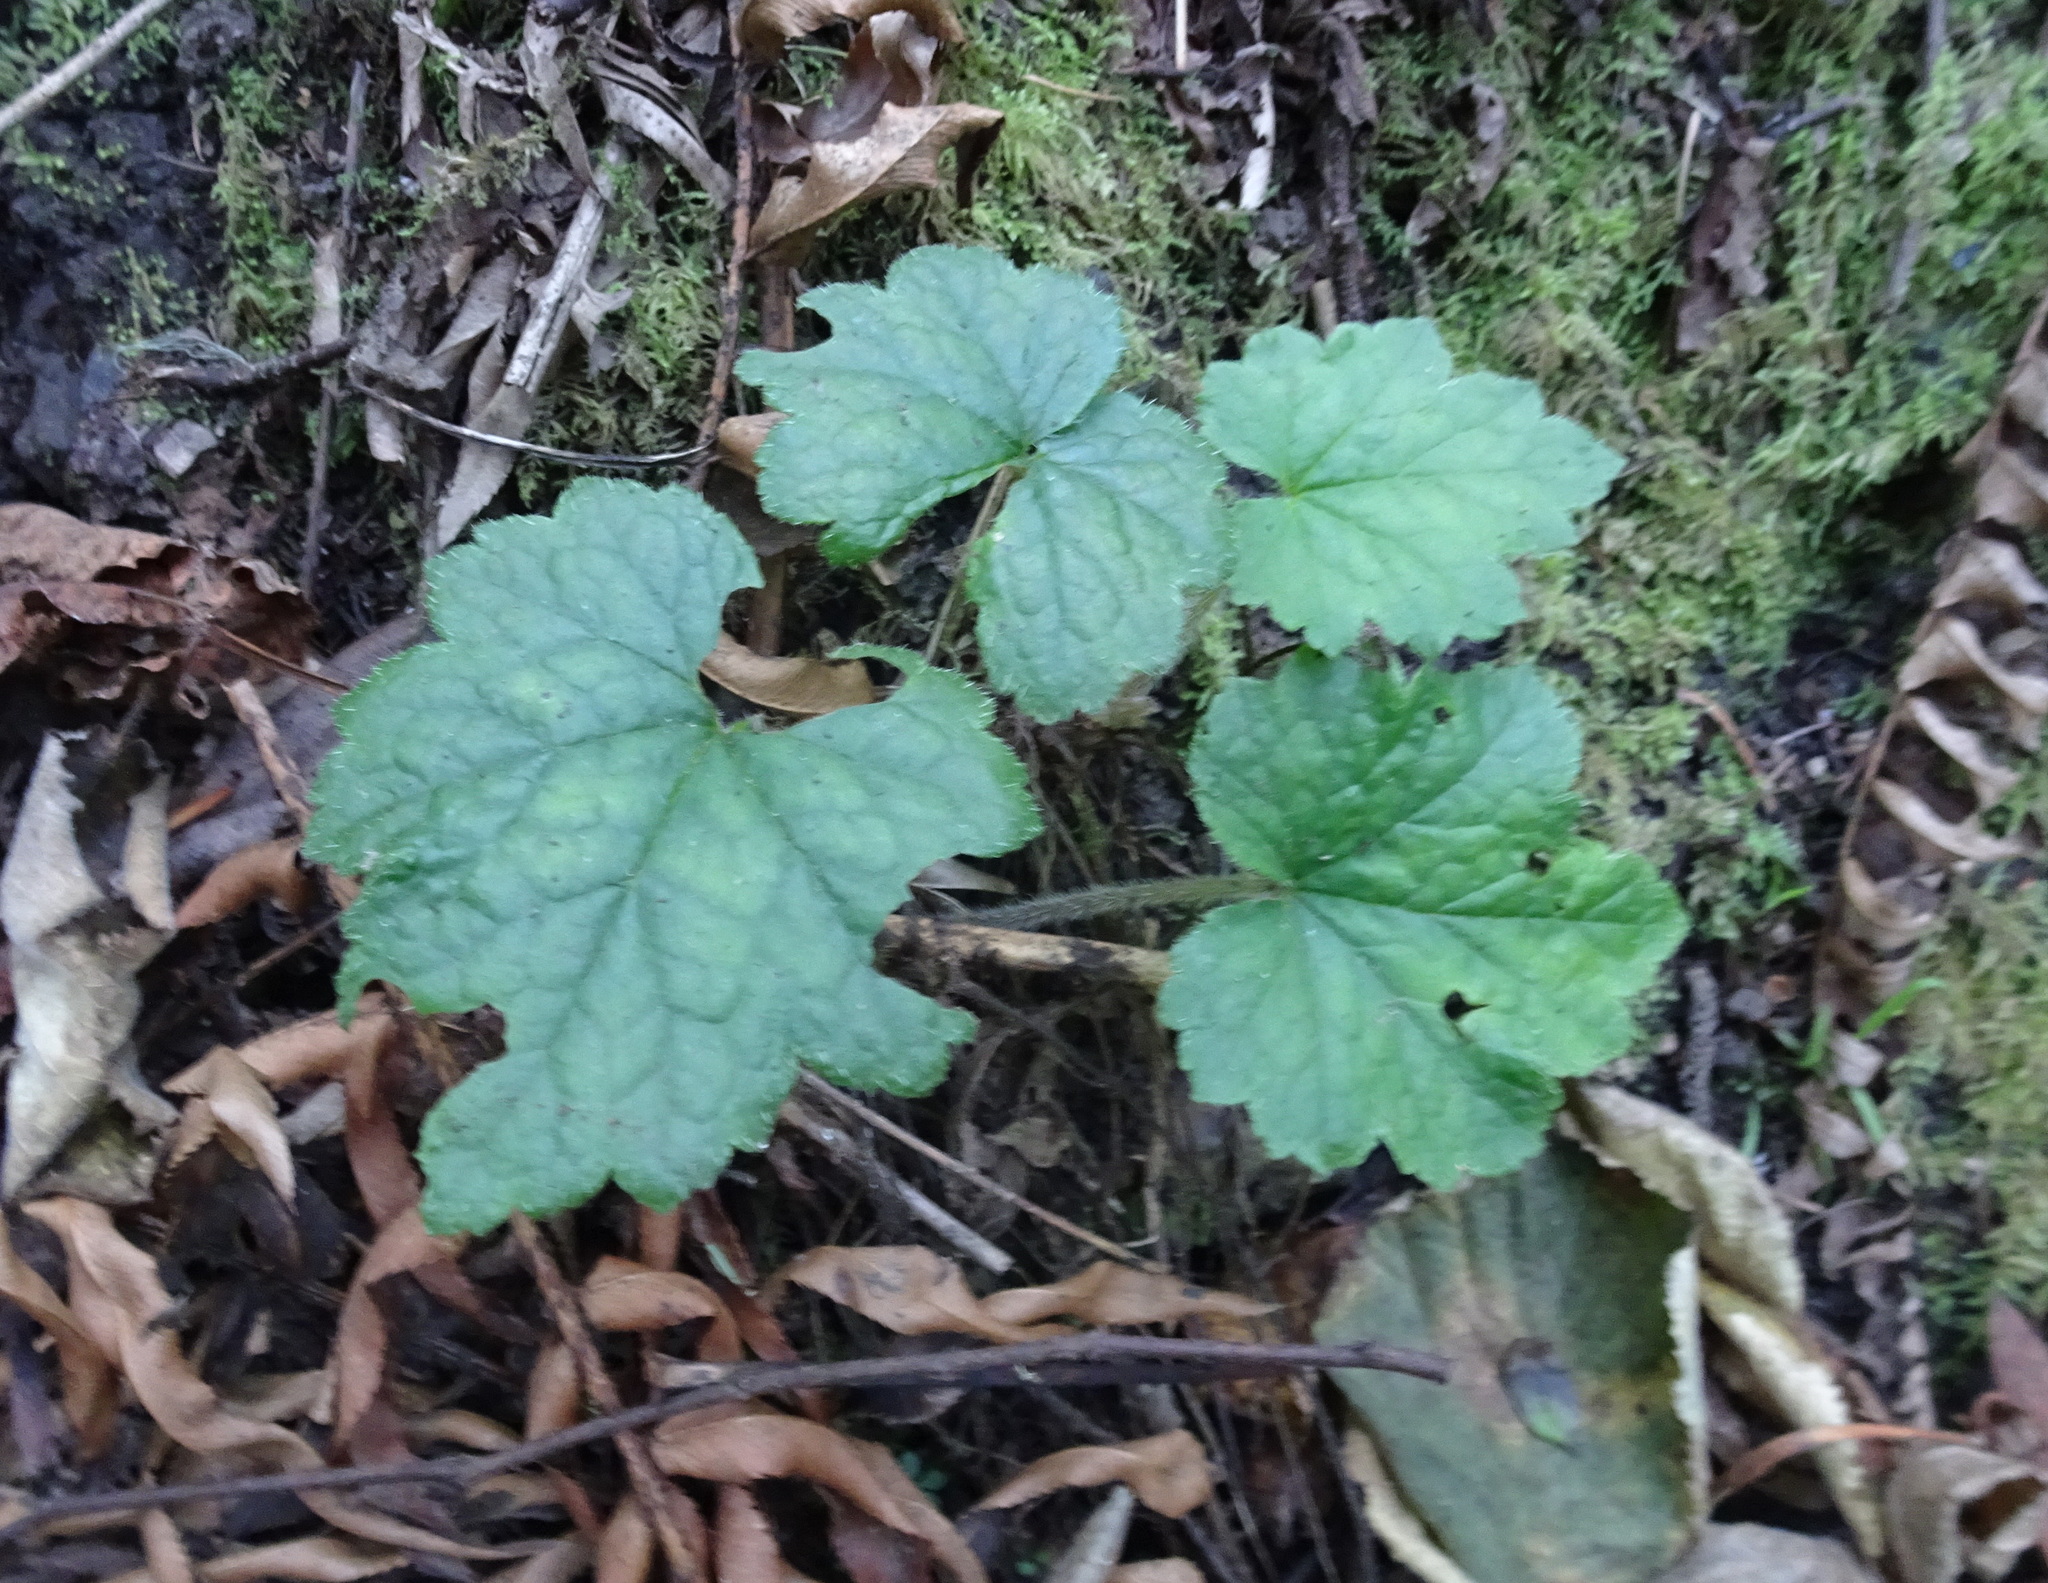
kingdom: Plantae
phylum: Tracheophyta
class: Magnoliopsida
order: Saxifragales
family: Saxifragaceae
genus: Heuchera
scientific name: Heuchera micrantha
